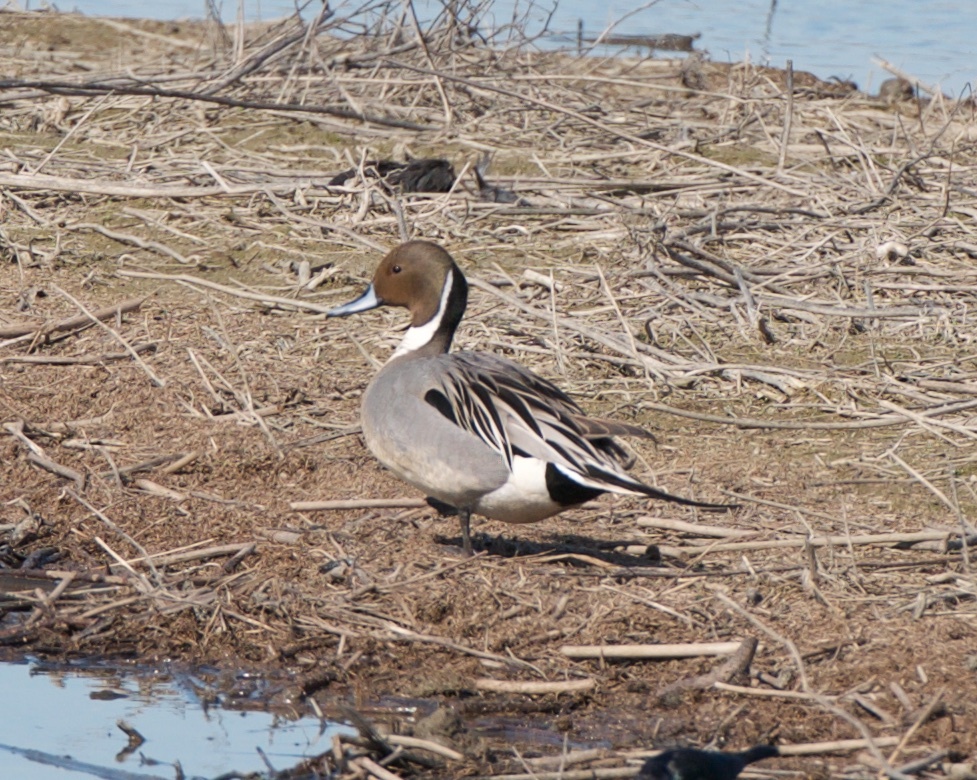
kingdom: Animalia
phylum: Chordata
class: Aves
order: Anseriformes
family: Anatidae
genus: Anas
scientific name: Anas acuta
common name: Northern pintail
